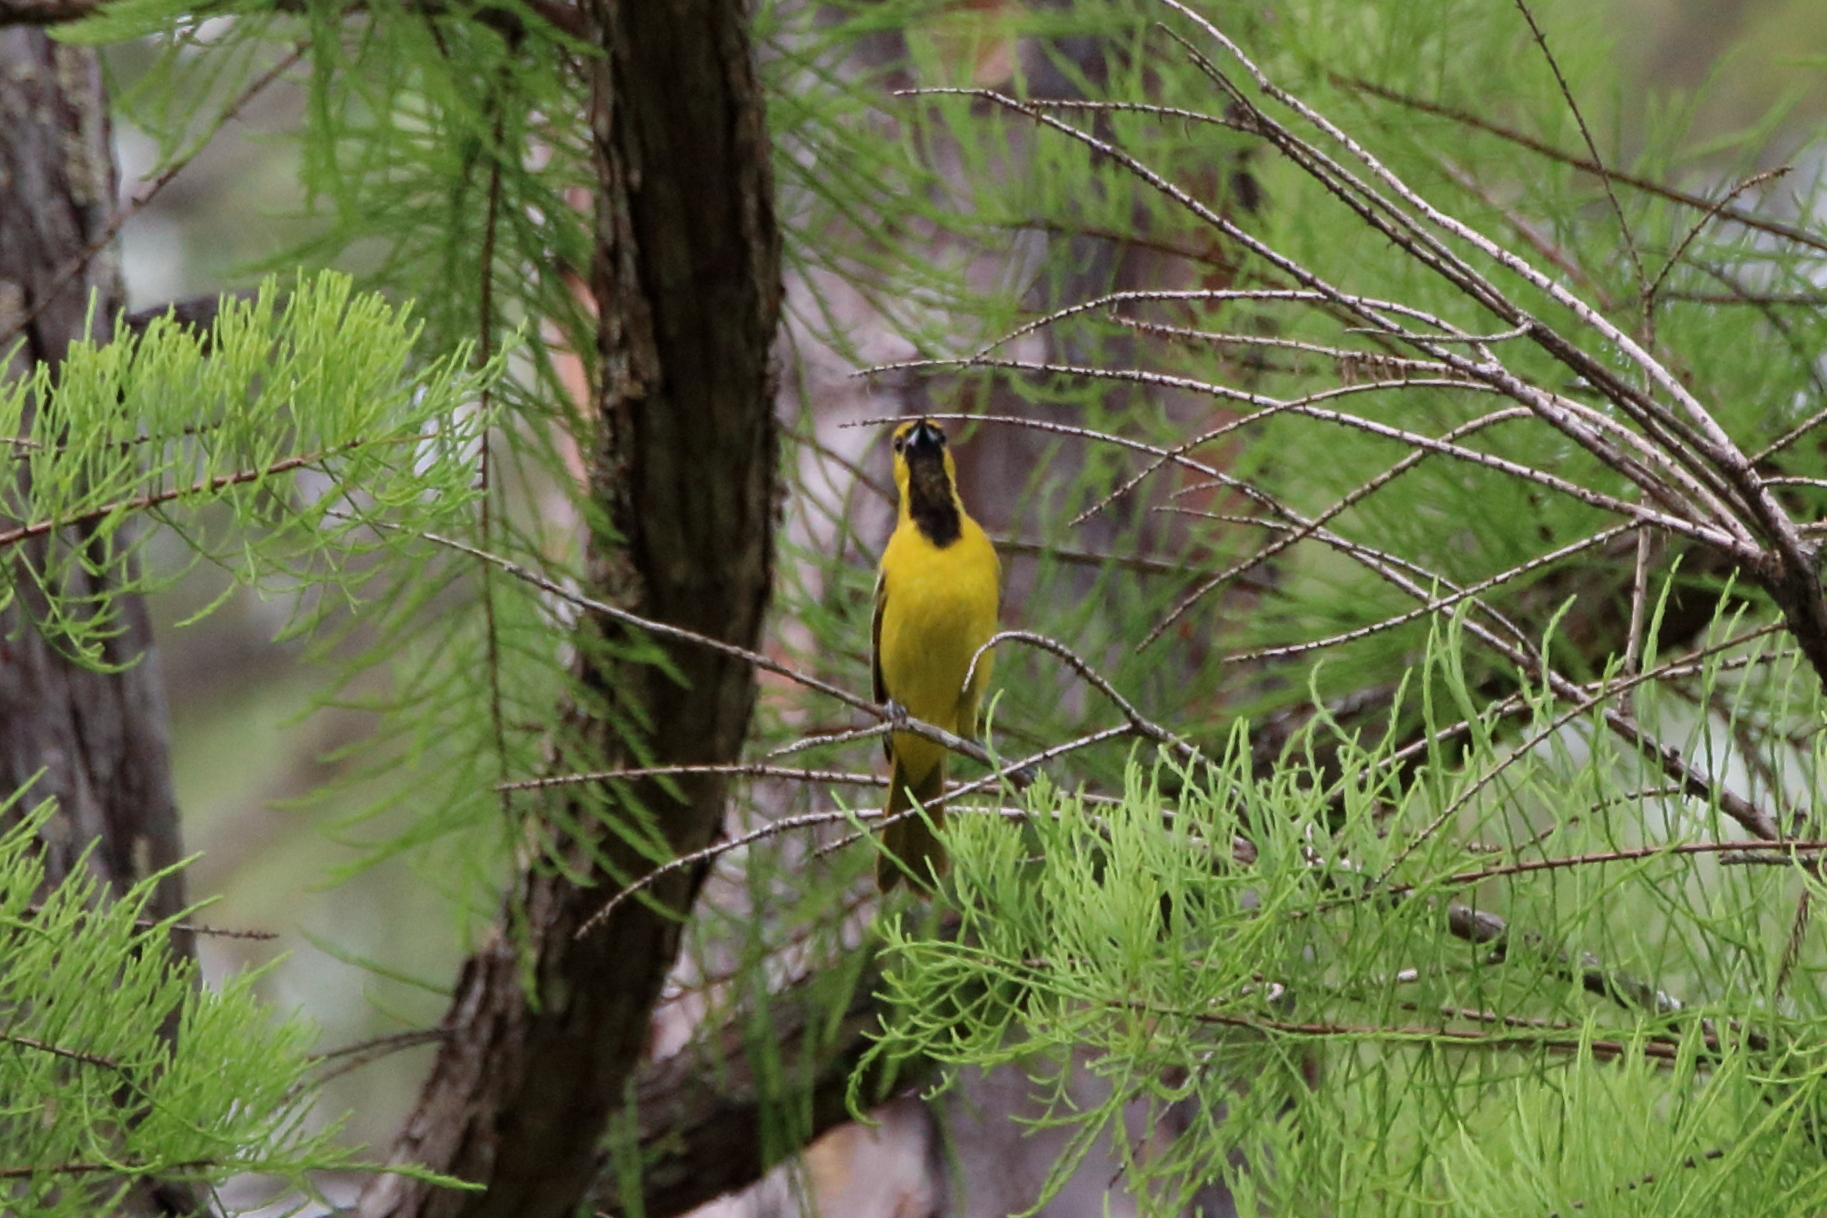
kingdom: Animalia
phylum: Chordata
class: Aves
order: Passeriformes
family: Icteridae
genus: Icterus
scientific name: Icterus spurius
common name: Orchard oriole
